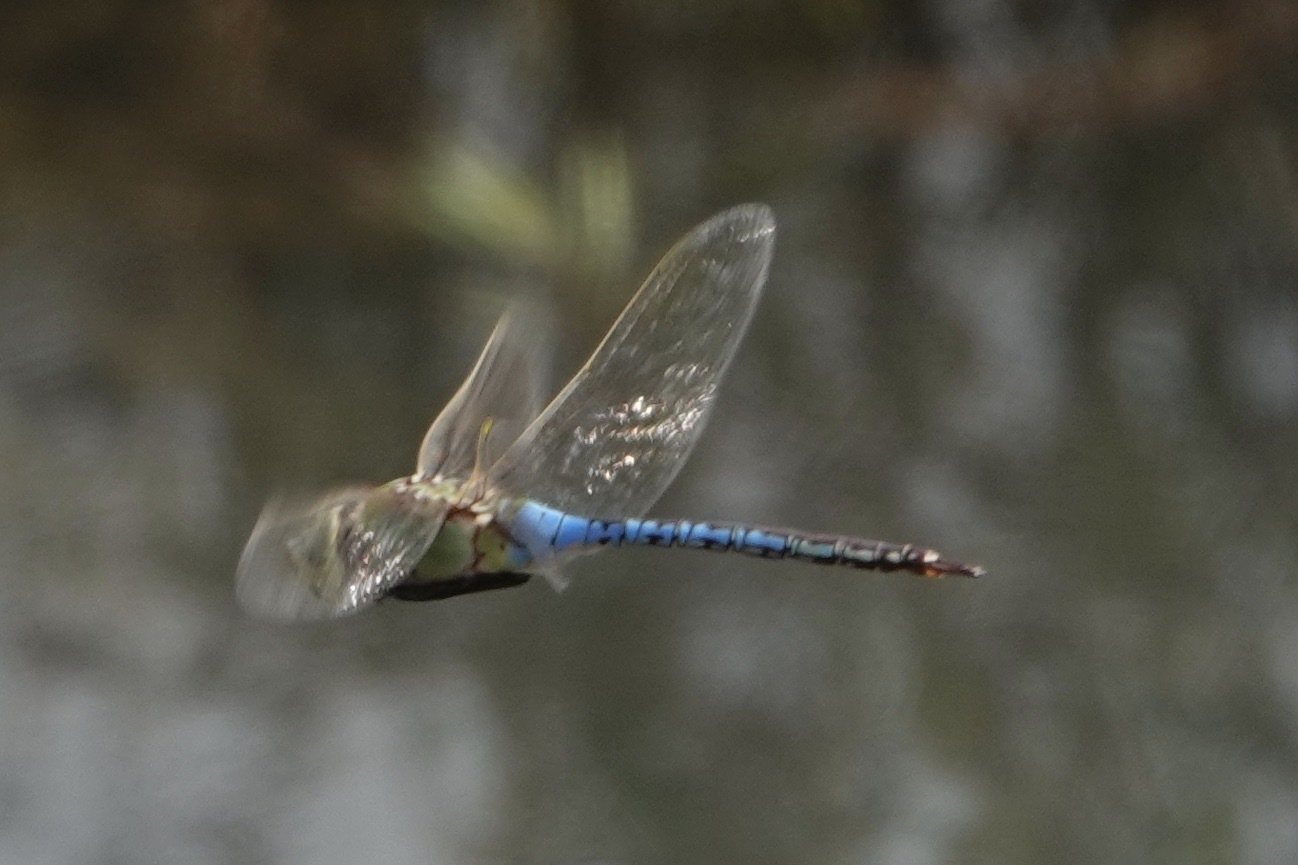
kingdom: Animalia
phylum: Arthropoda
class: Insecta
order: Odonata
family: Aeshnidae
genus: Anax
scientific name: Anax junius
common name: Common green darner
